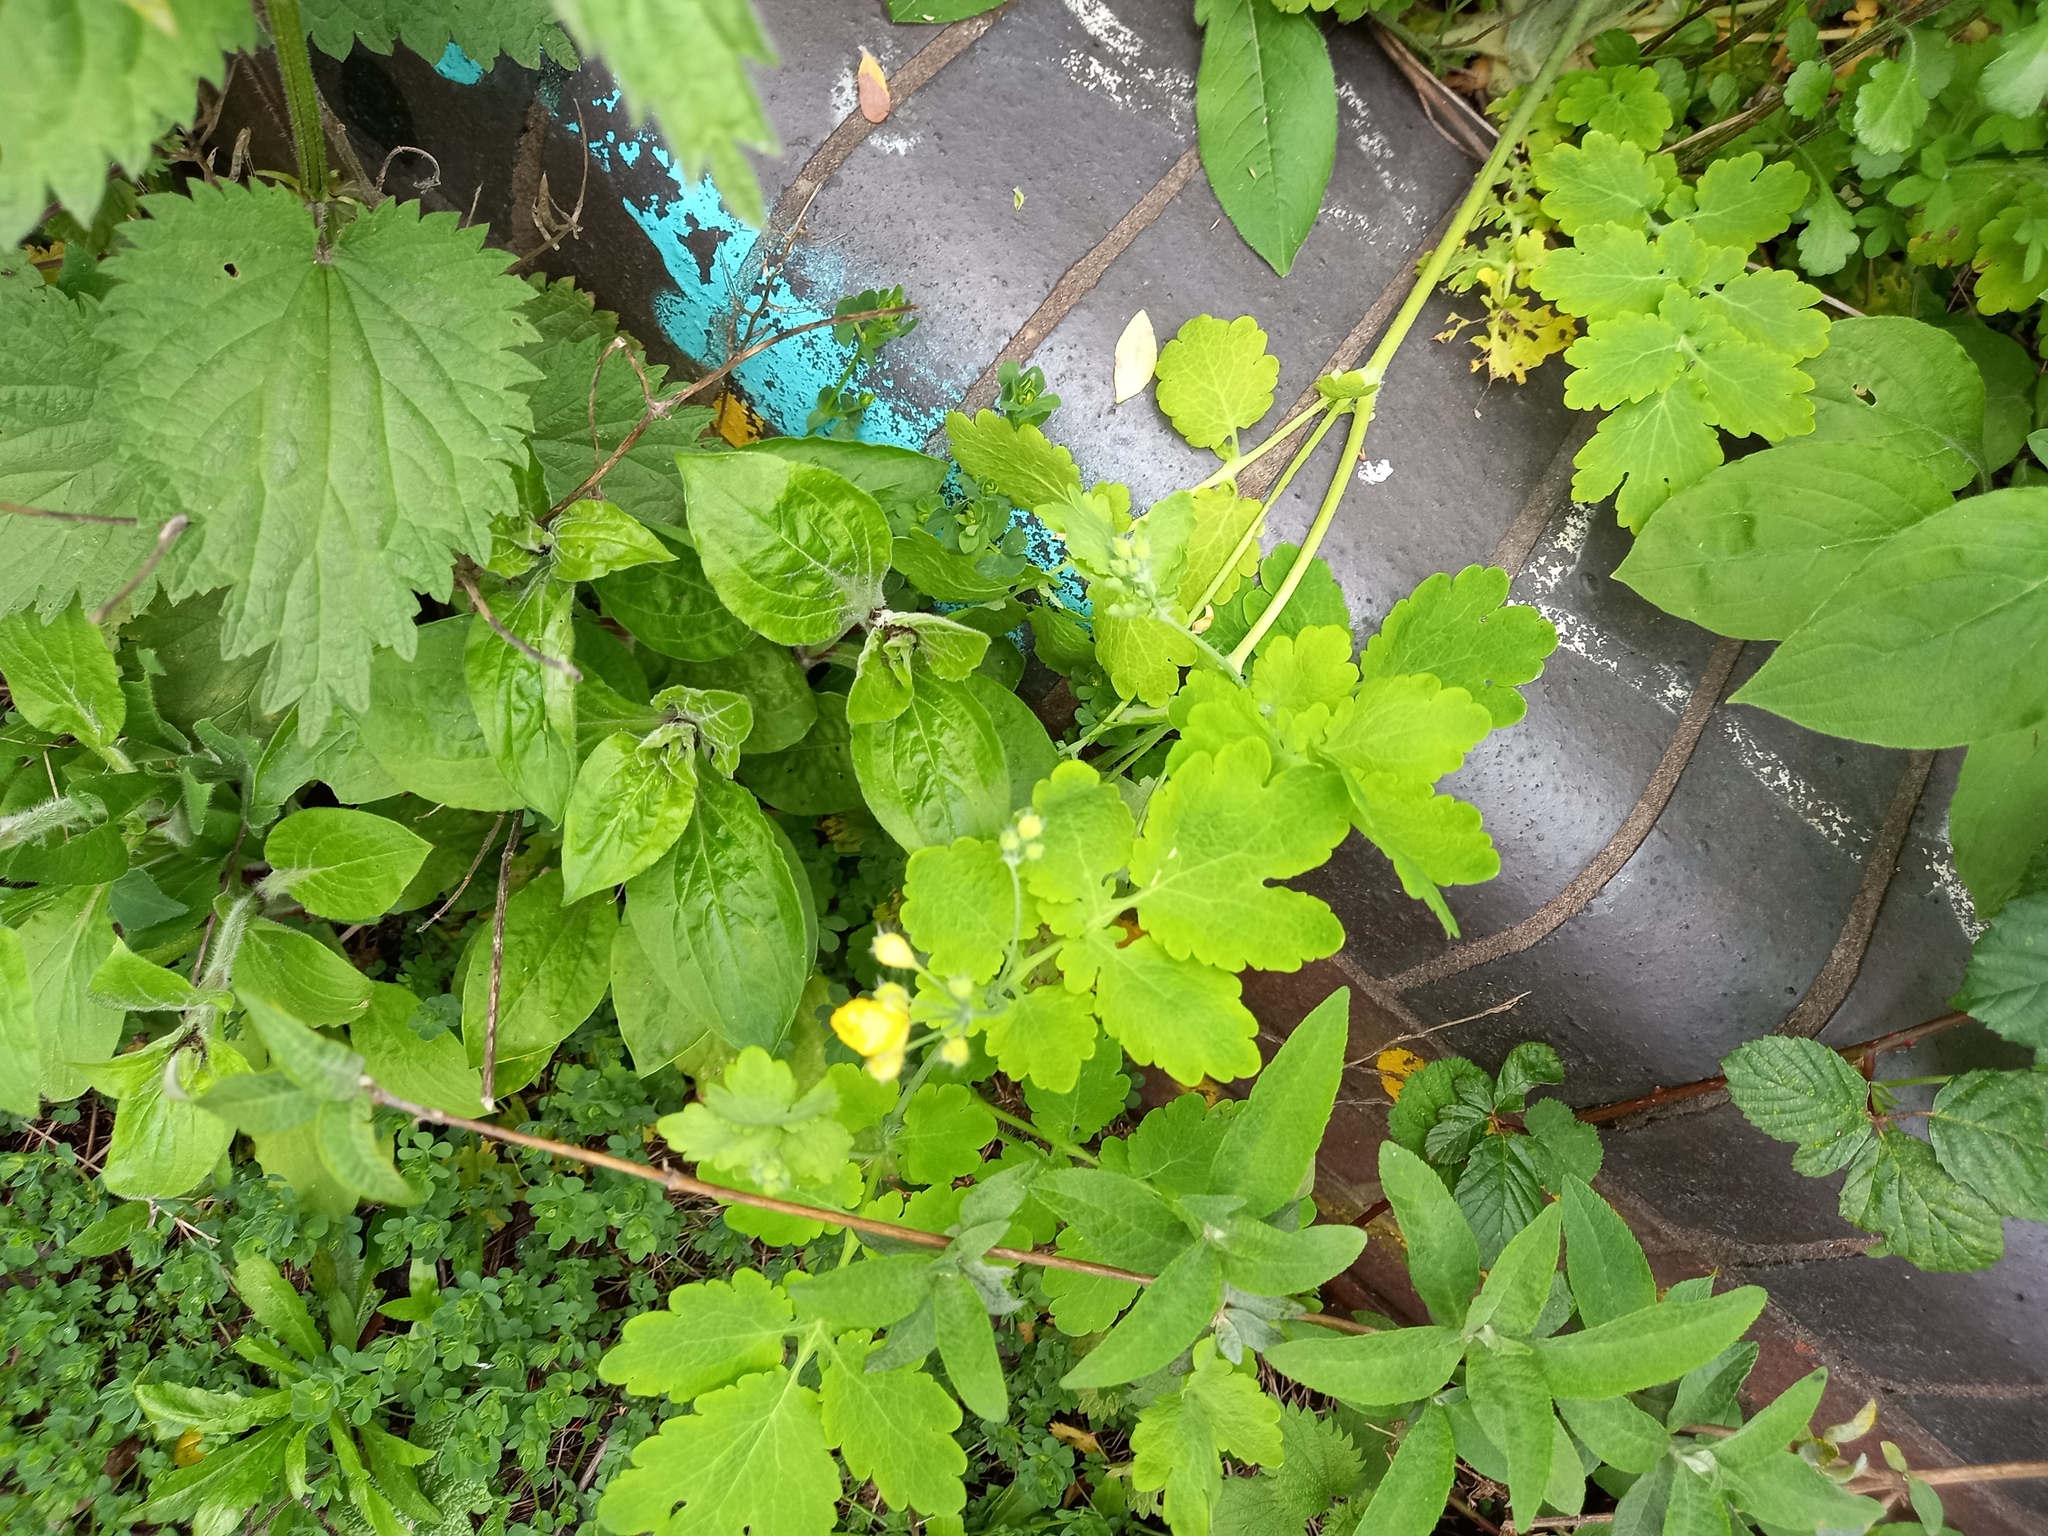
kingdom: Plantae
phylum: Tracheophyta
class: Magnoliopsida
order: Ranunculales
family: Papaveraceae
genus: Chelidonium
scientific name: Chelidonium majus
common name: Greater celandine
